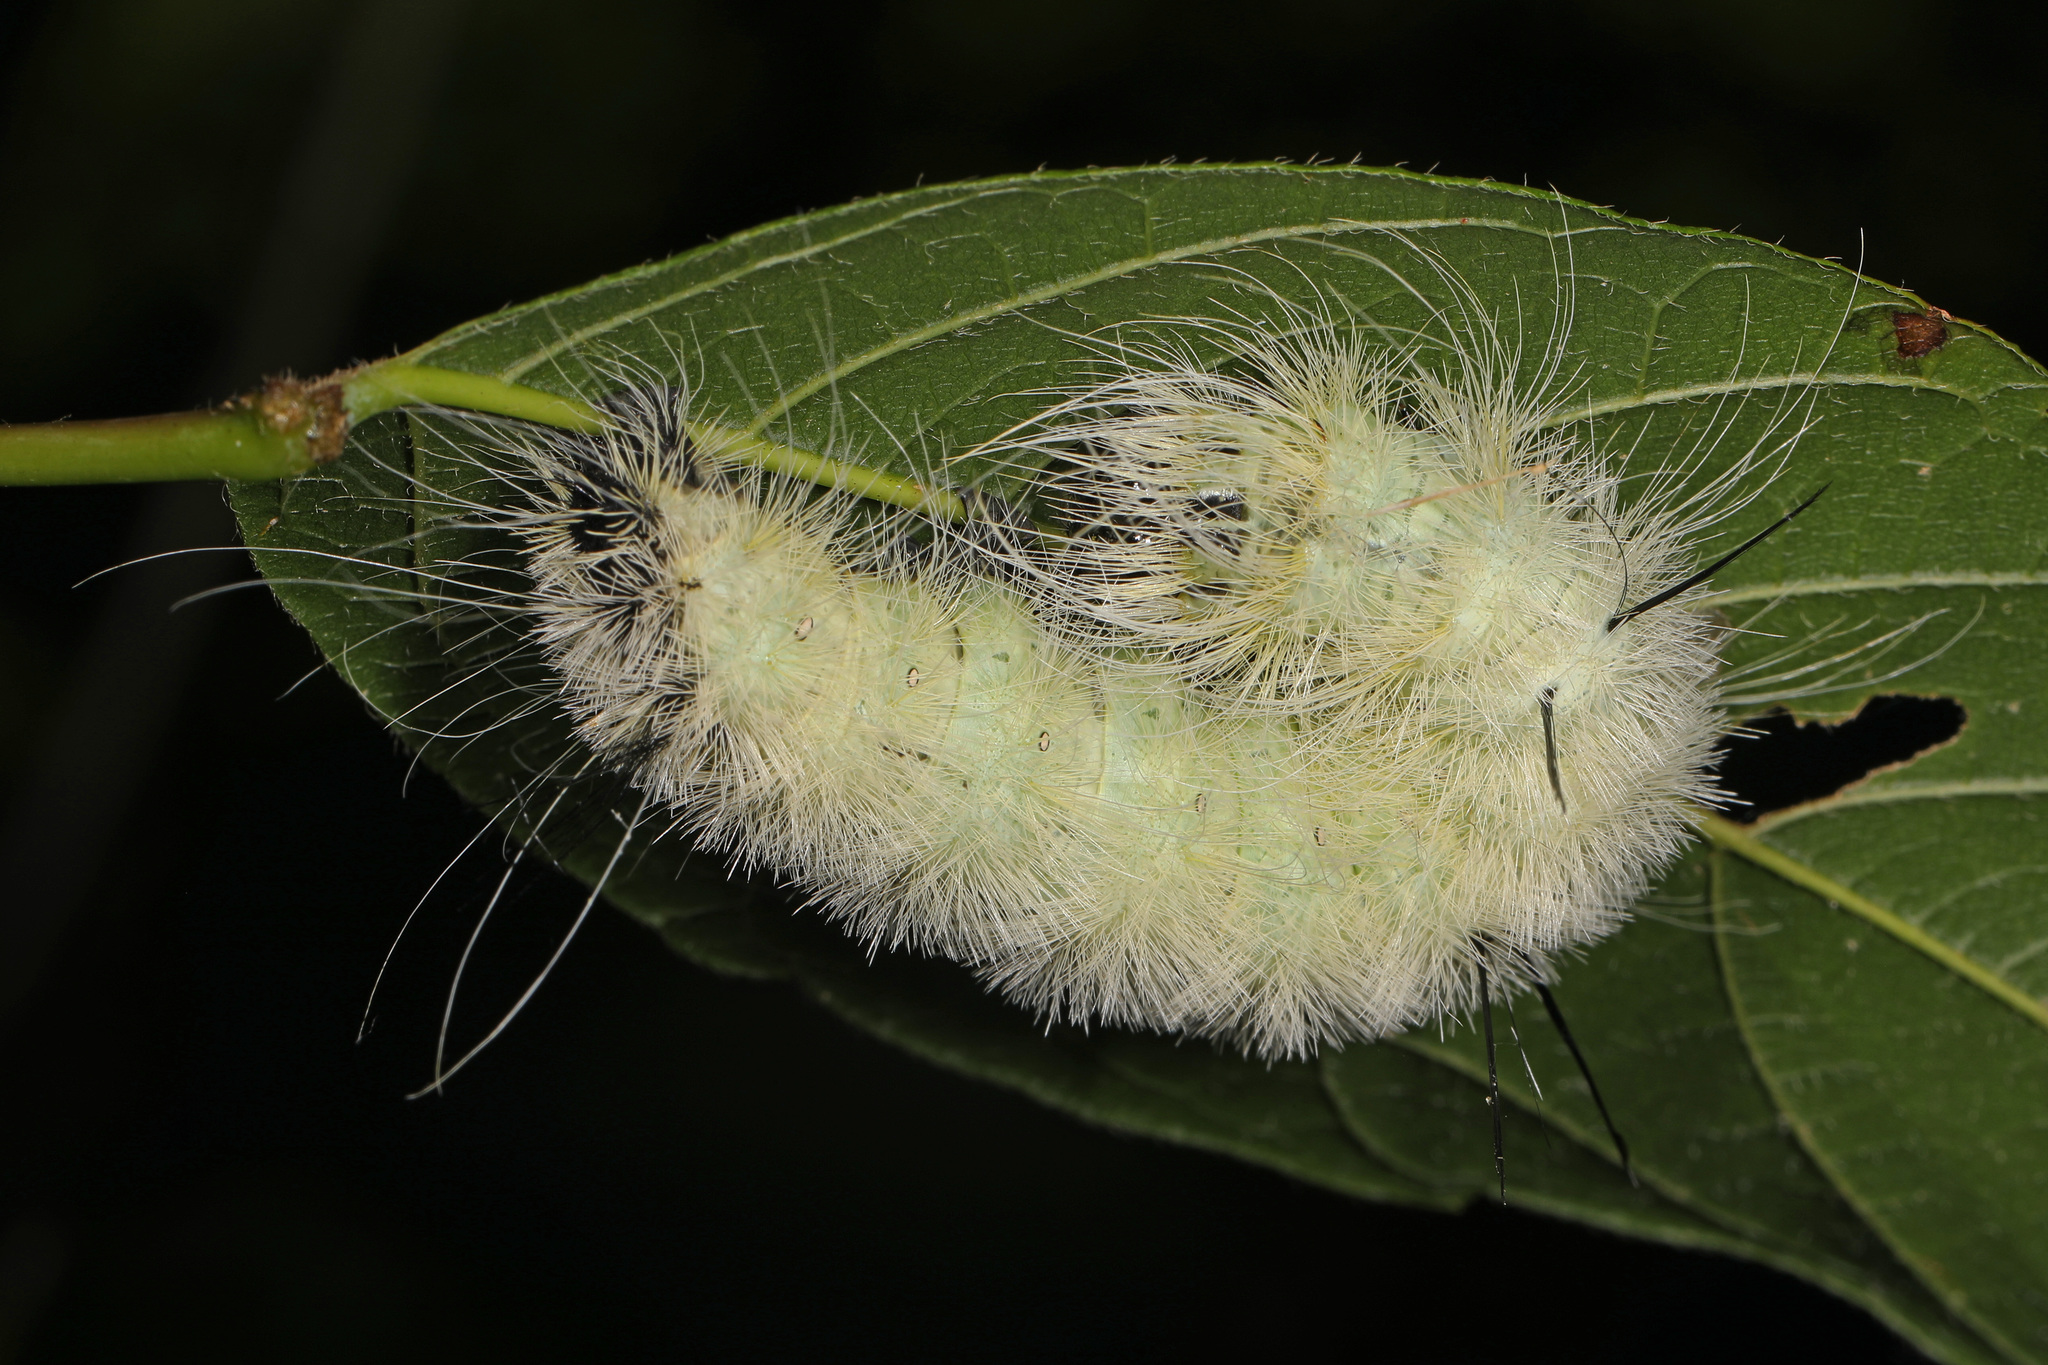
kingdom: Animalia
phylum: Arthropoda
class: Insecta
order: Lepidoptera
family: Noctuidae
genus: Acronicta
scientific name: Acronicta americana
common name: American dagger
